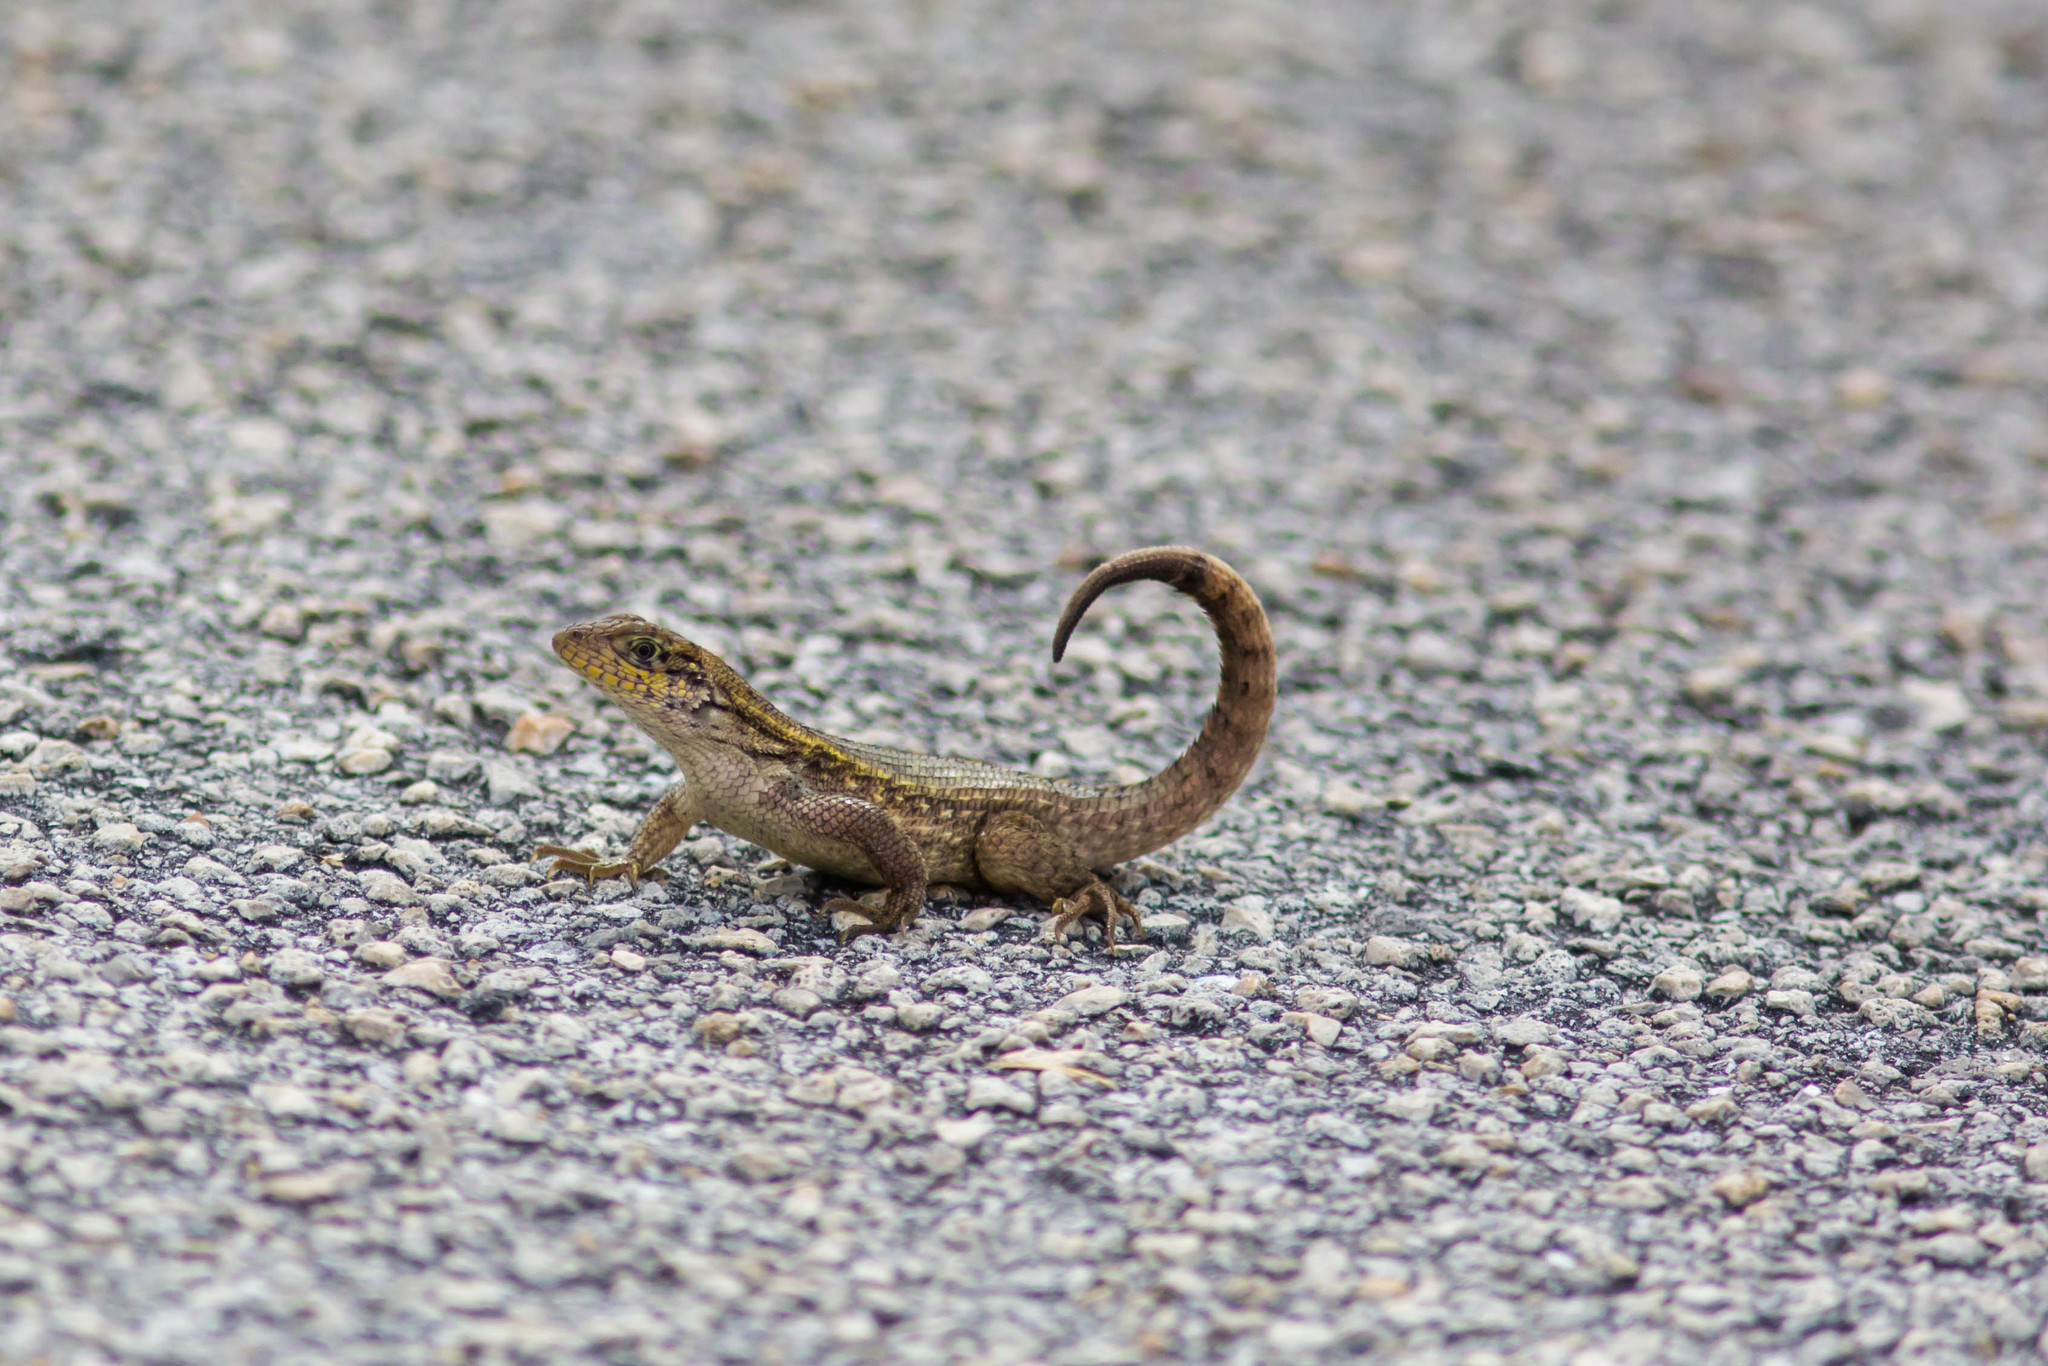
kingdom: Animalia
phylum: Chordata
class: Squamata
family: Leiocephalidae
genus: Leiocephalus
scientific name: Leiocephalus carinatus
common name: Northern curly-tailed lizard
